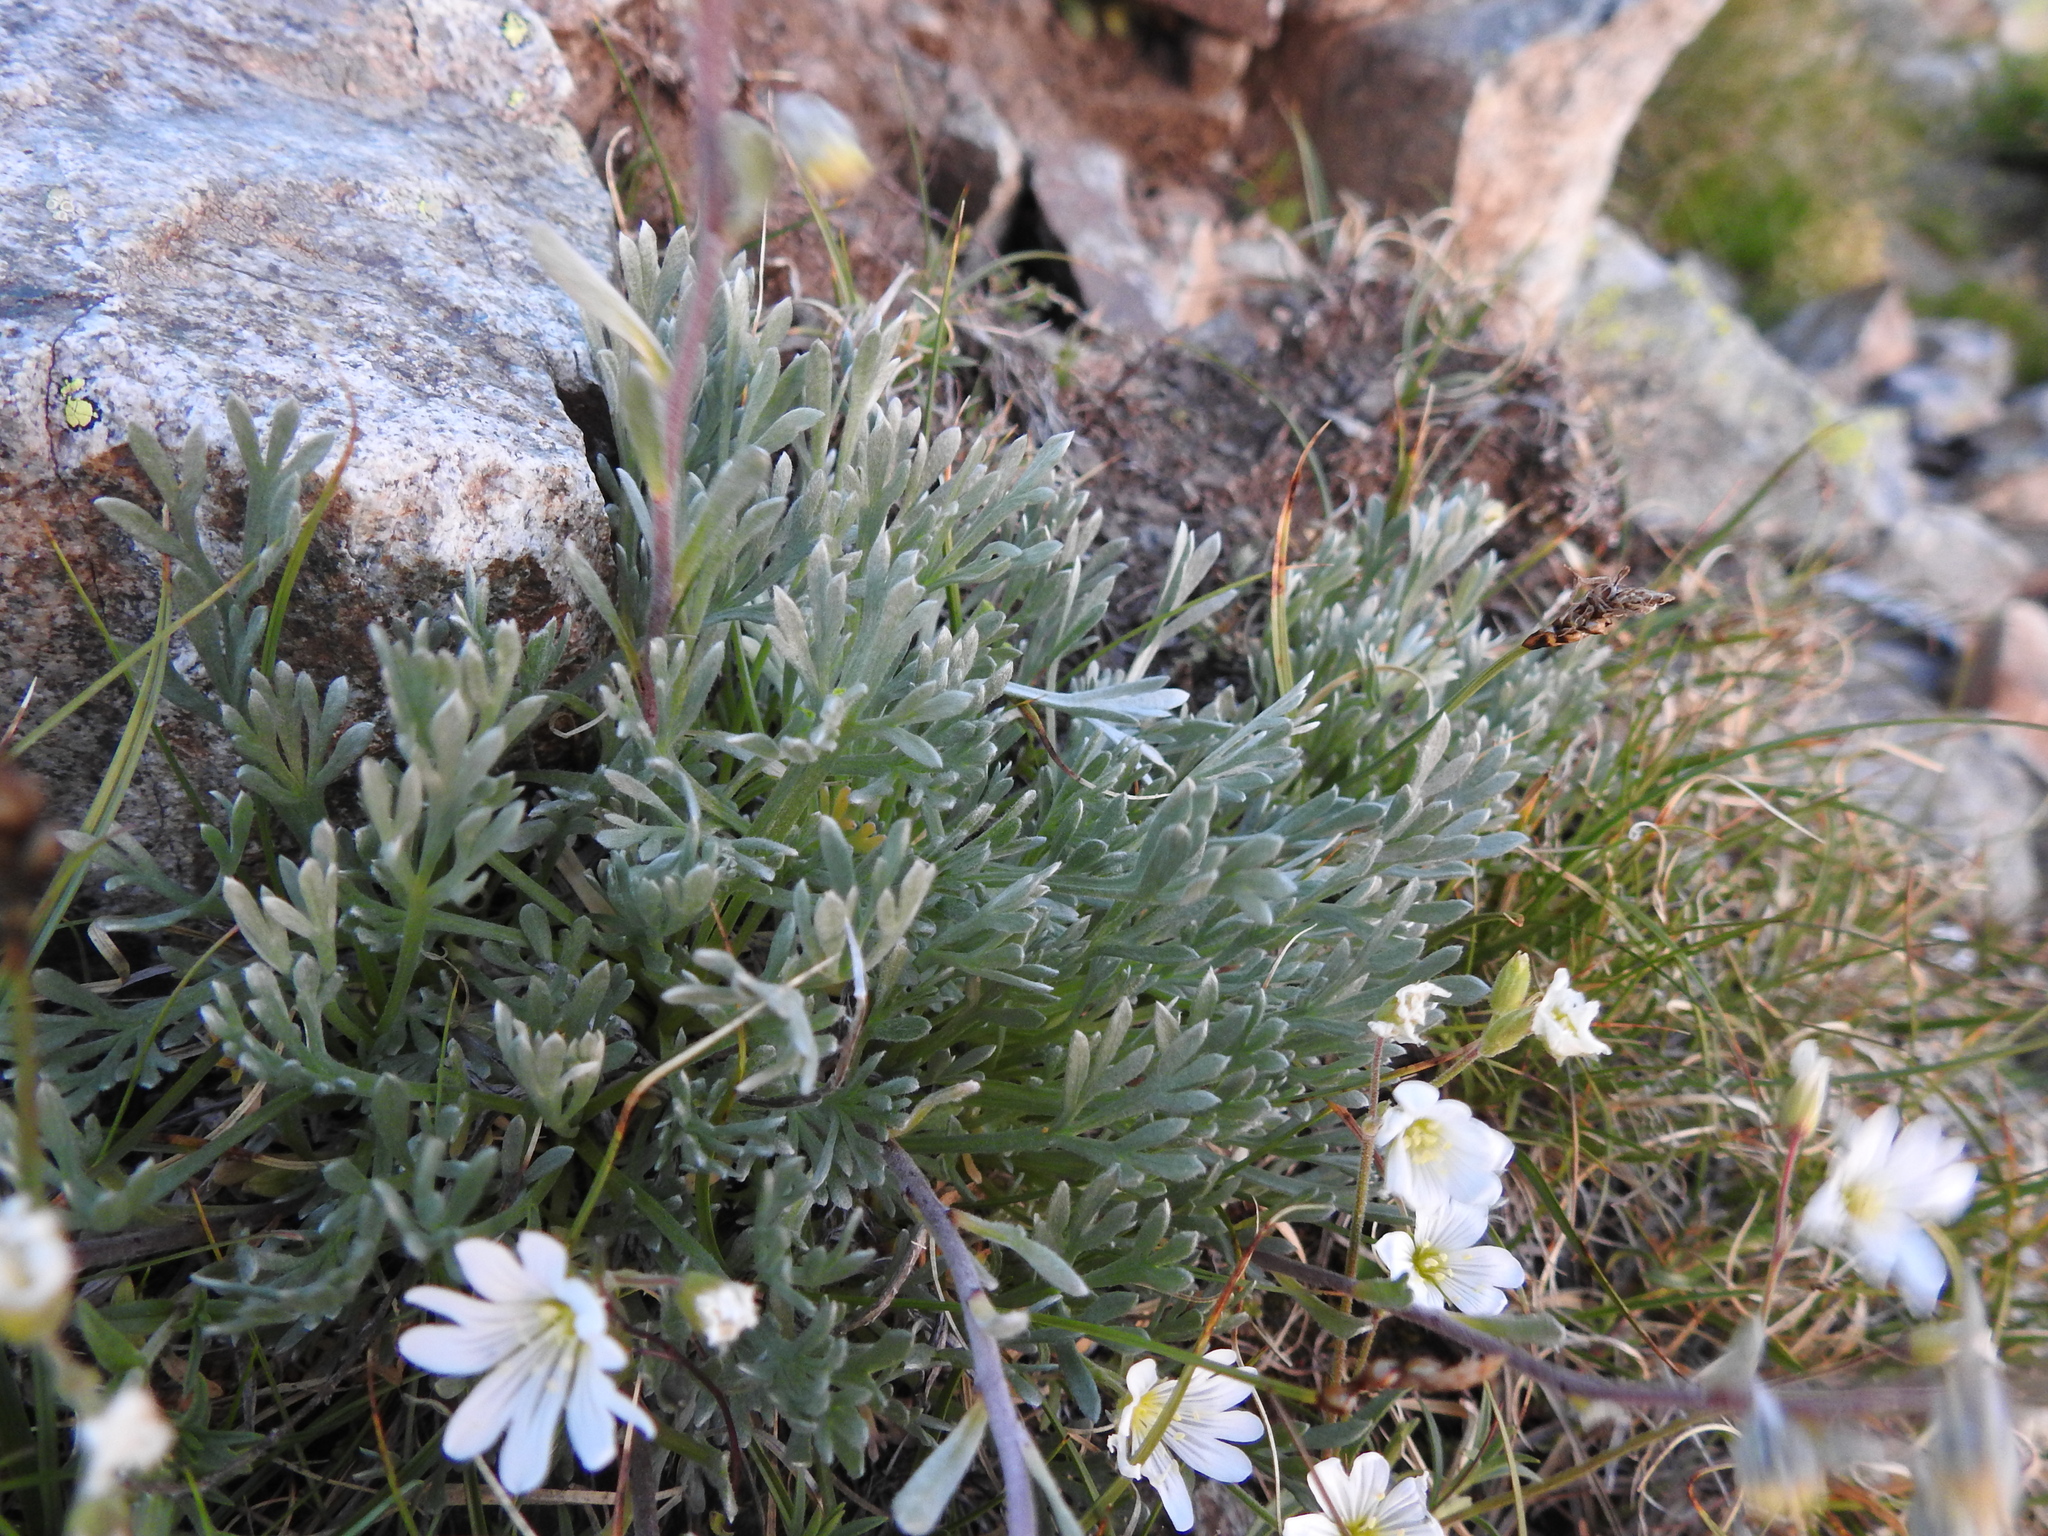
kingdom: Plantae
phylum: Tracheophyta
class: Magnoliopsida
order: Asterales
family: Asteraceae
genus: Artemisia
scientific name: Artemisia umbelliformis
